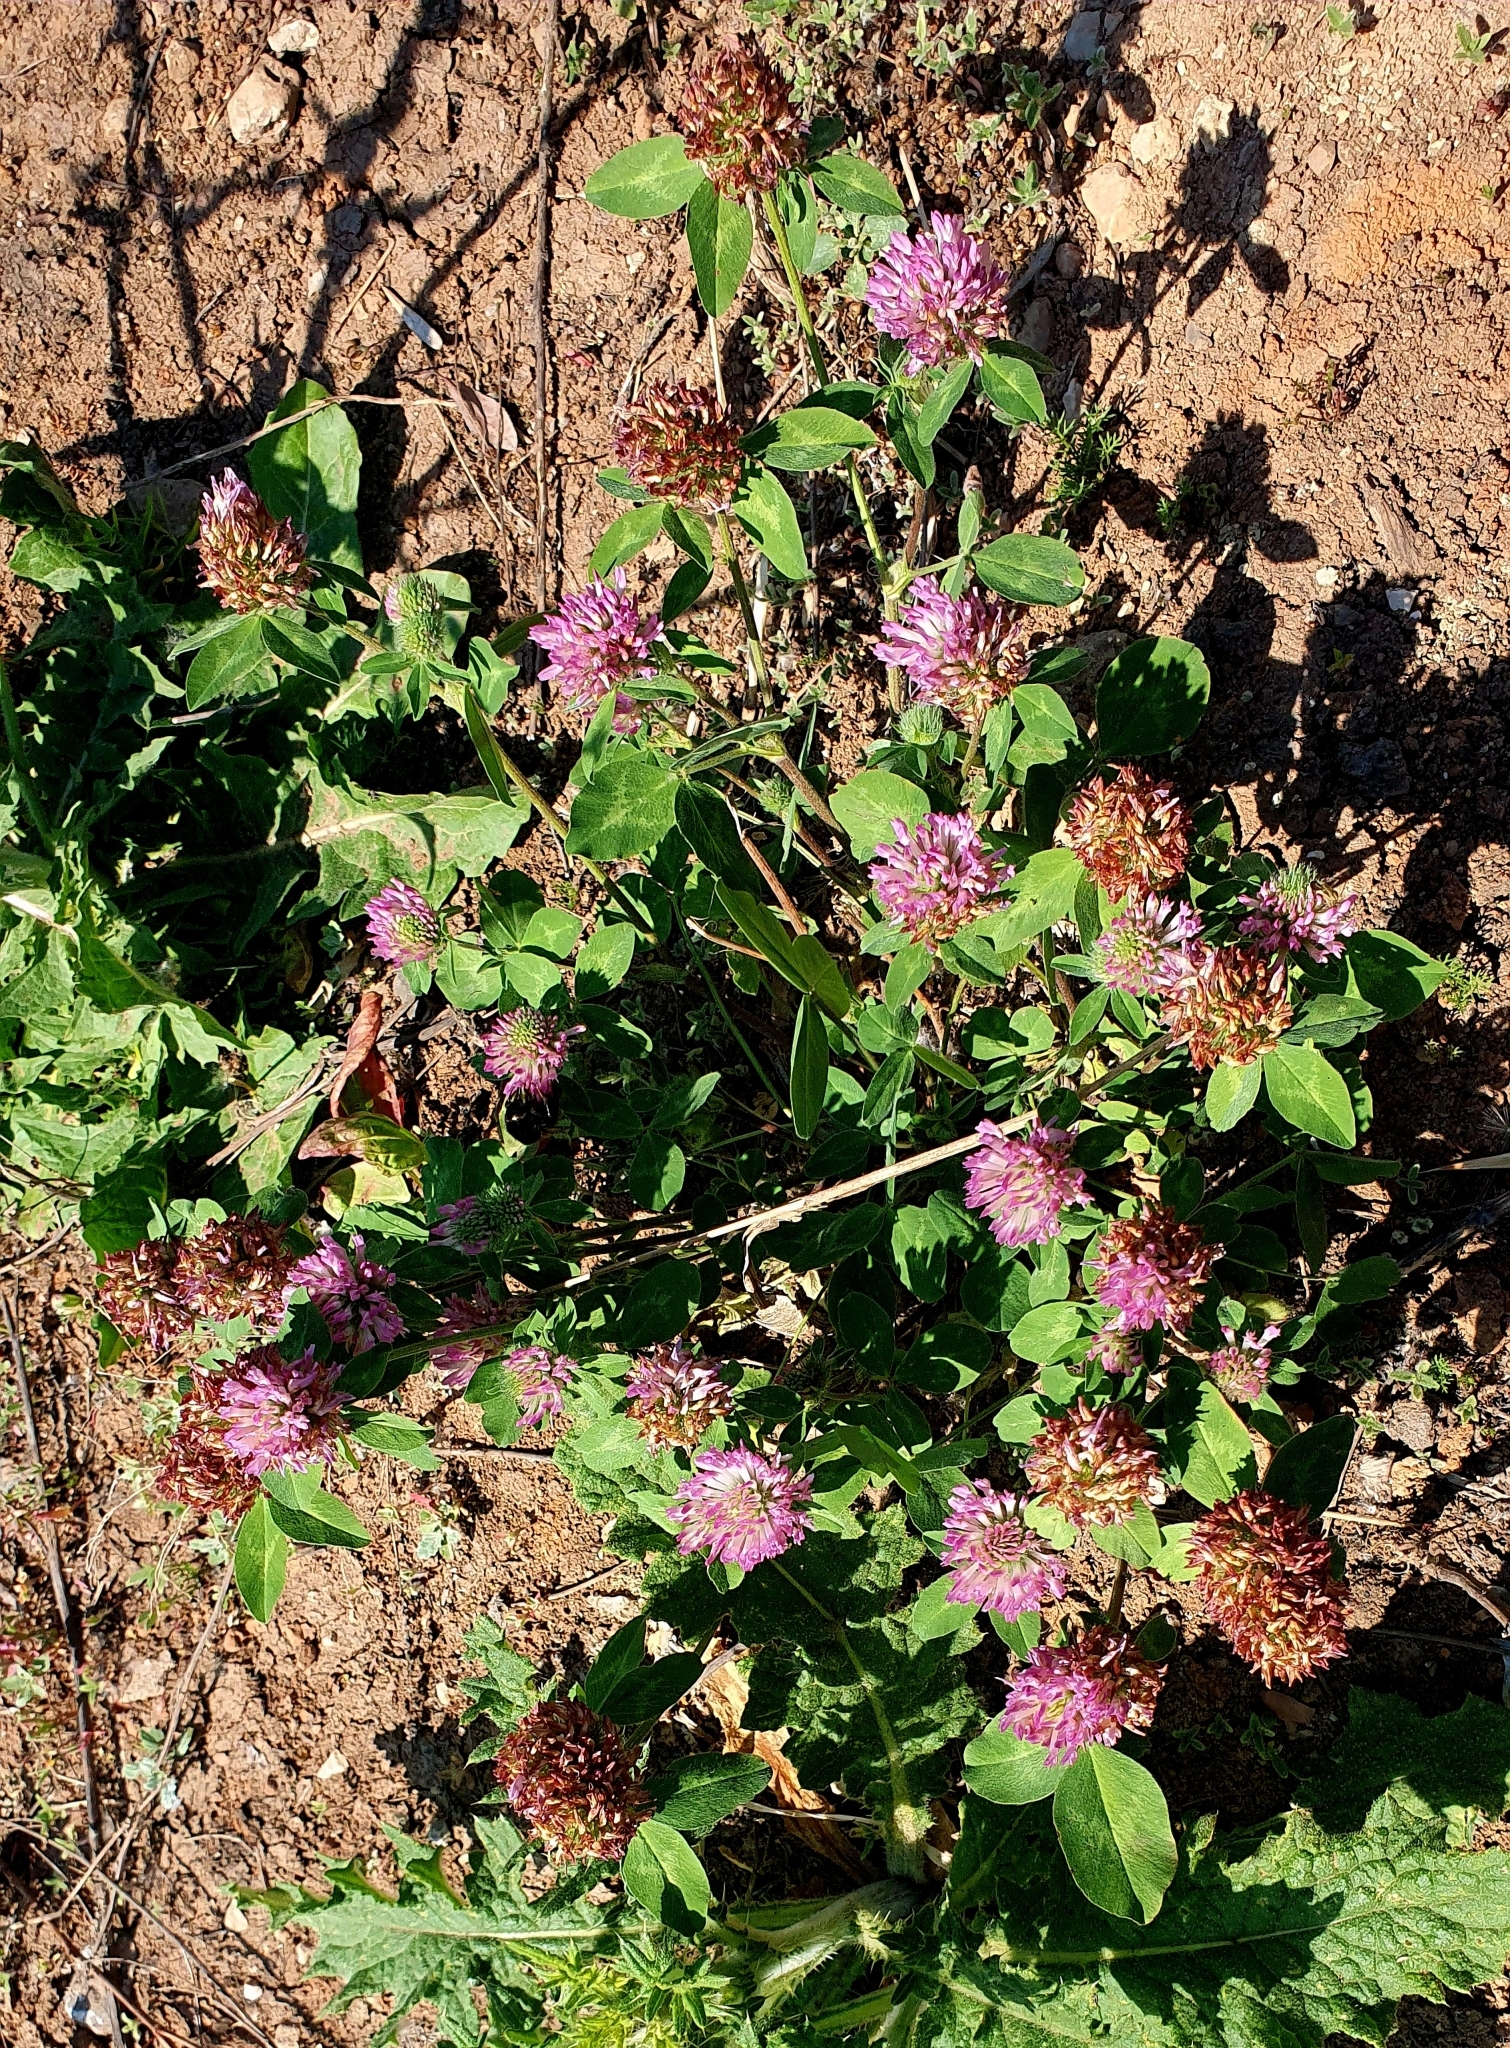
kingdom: Plantae
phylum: Tracheophyta
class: Magnoliopsida
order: Fabales
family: Fabaceae
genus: Trifolium
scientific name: Trifolium pratense
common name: Red clover
